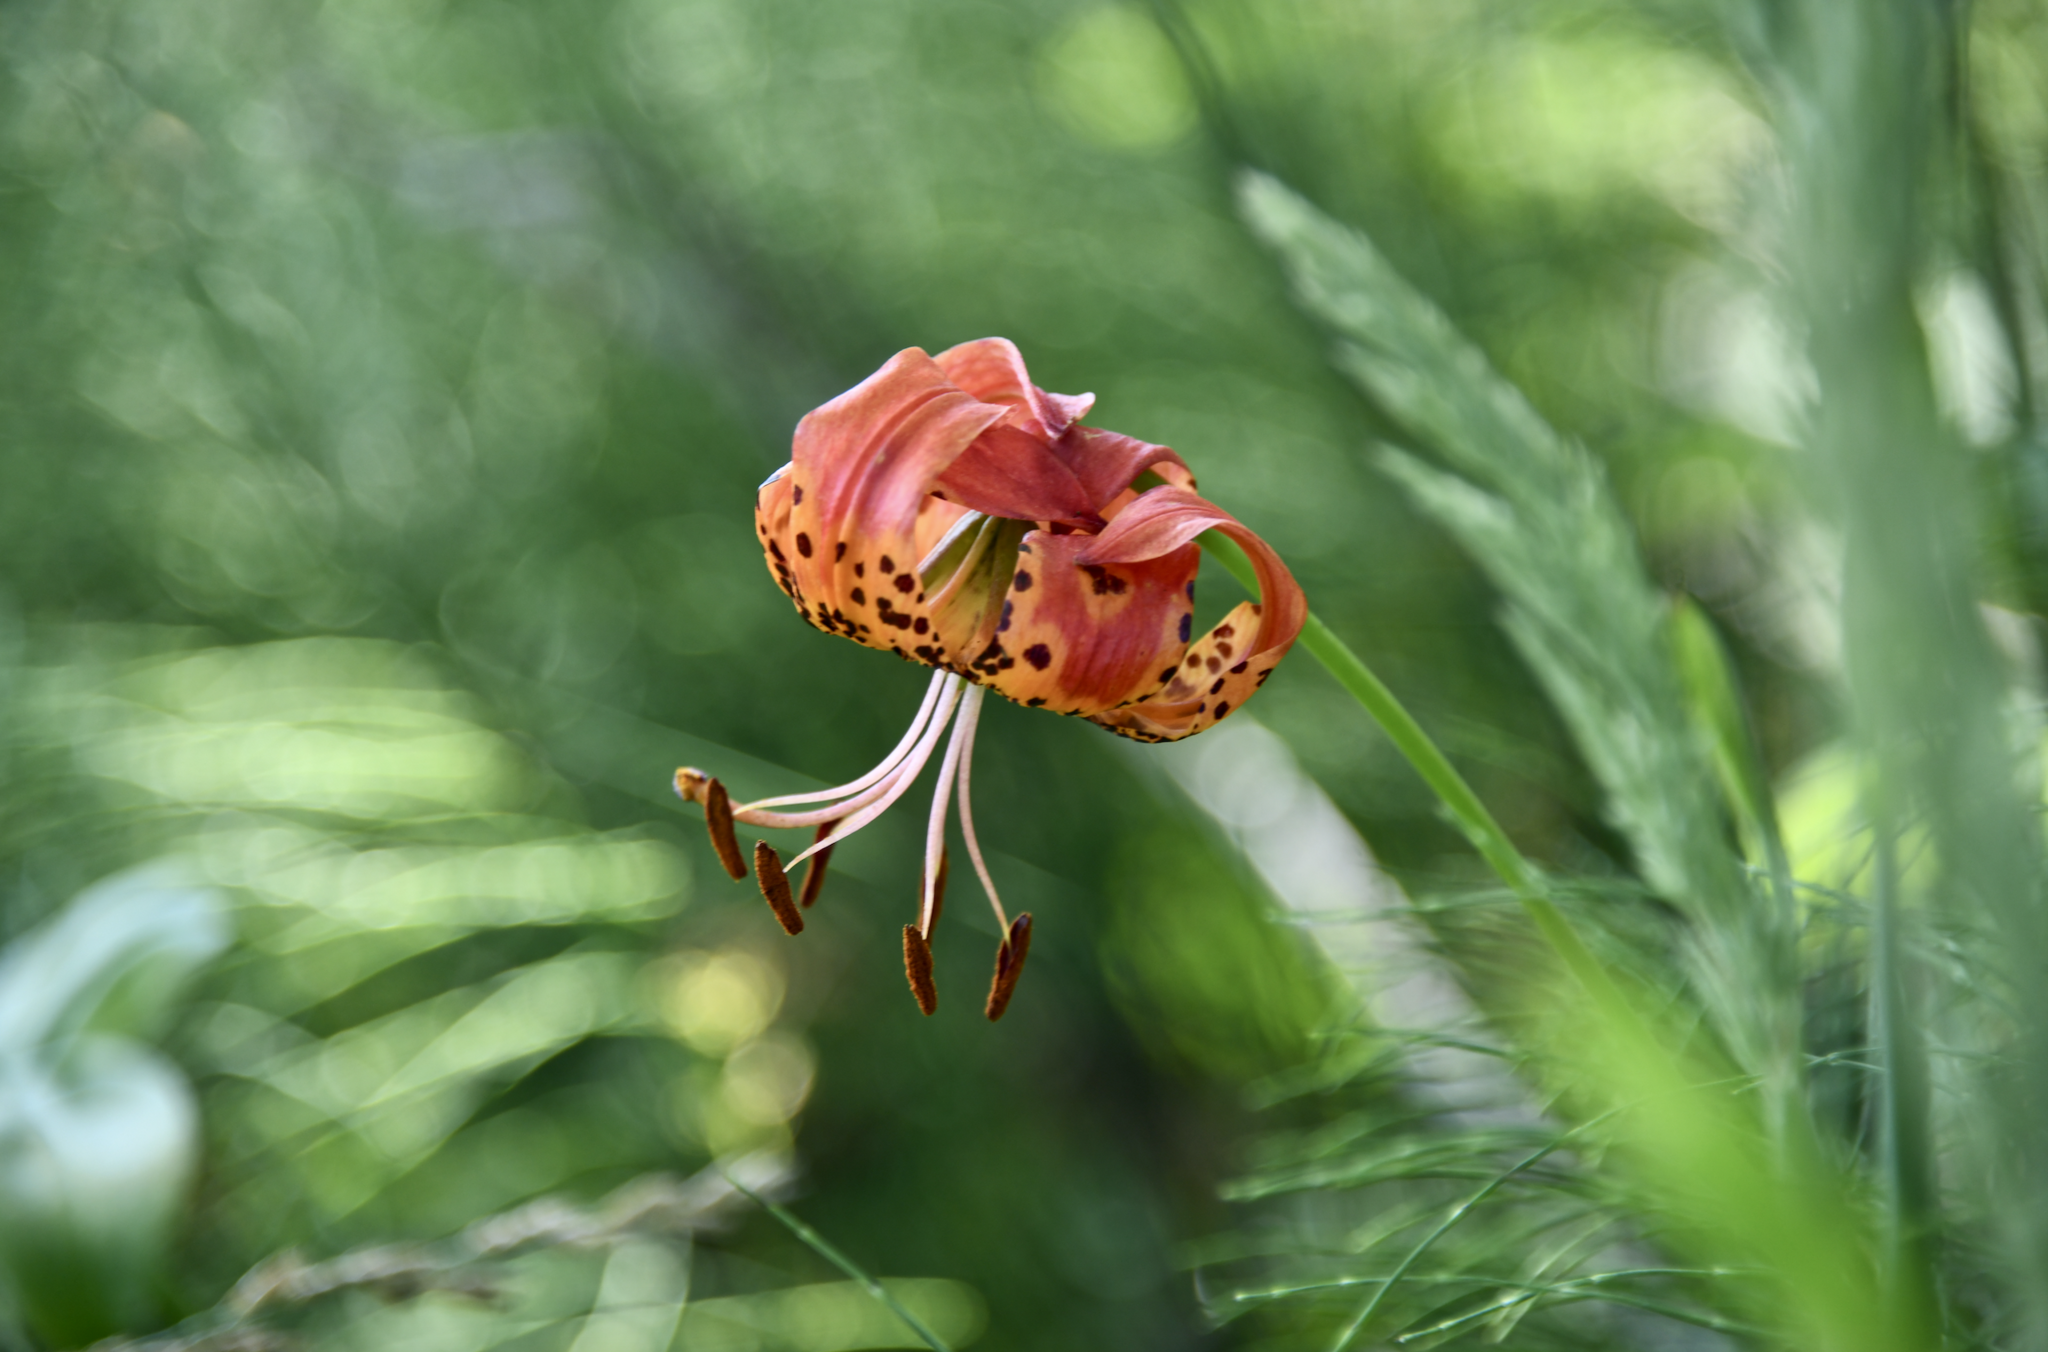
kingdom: Plantae
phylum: Tracheophyta
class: Liliopsida
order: Liliales
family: Liliaceae
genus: Lilium
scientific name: Lilium pardalinum
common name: Panther lily
